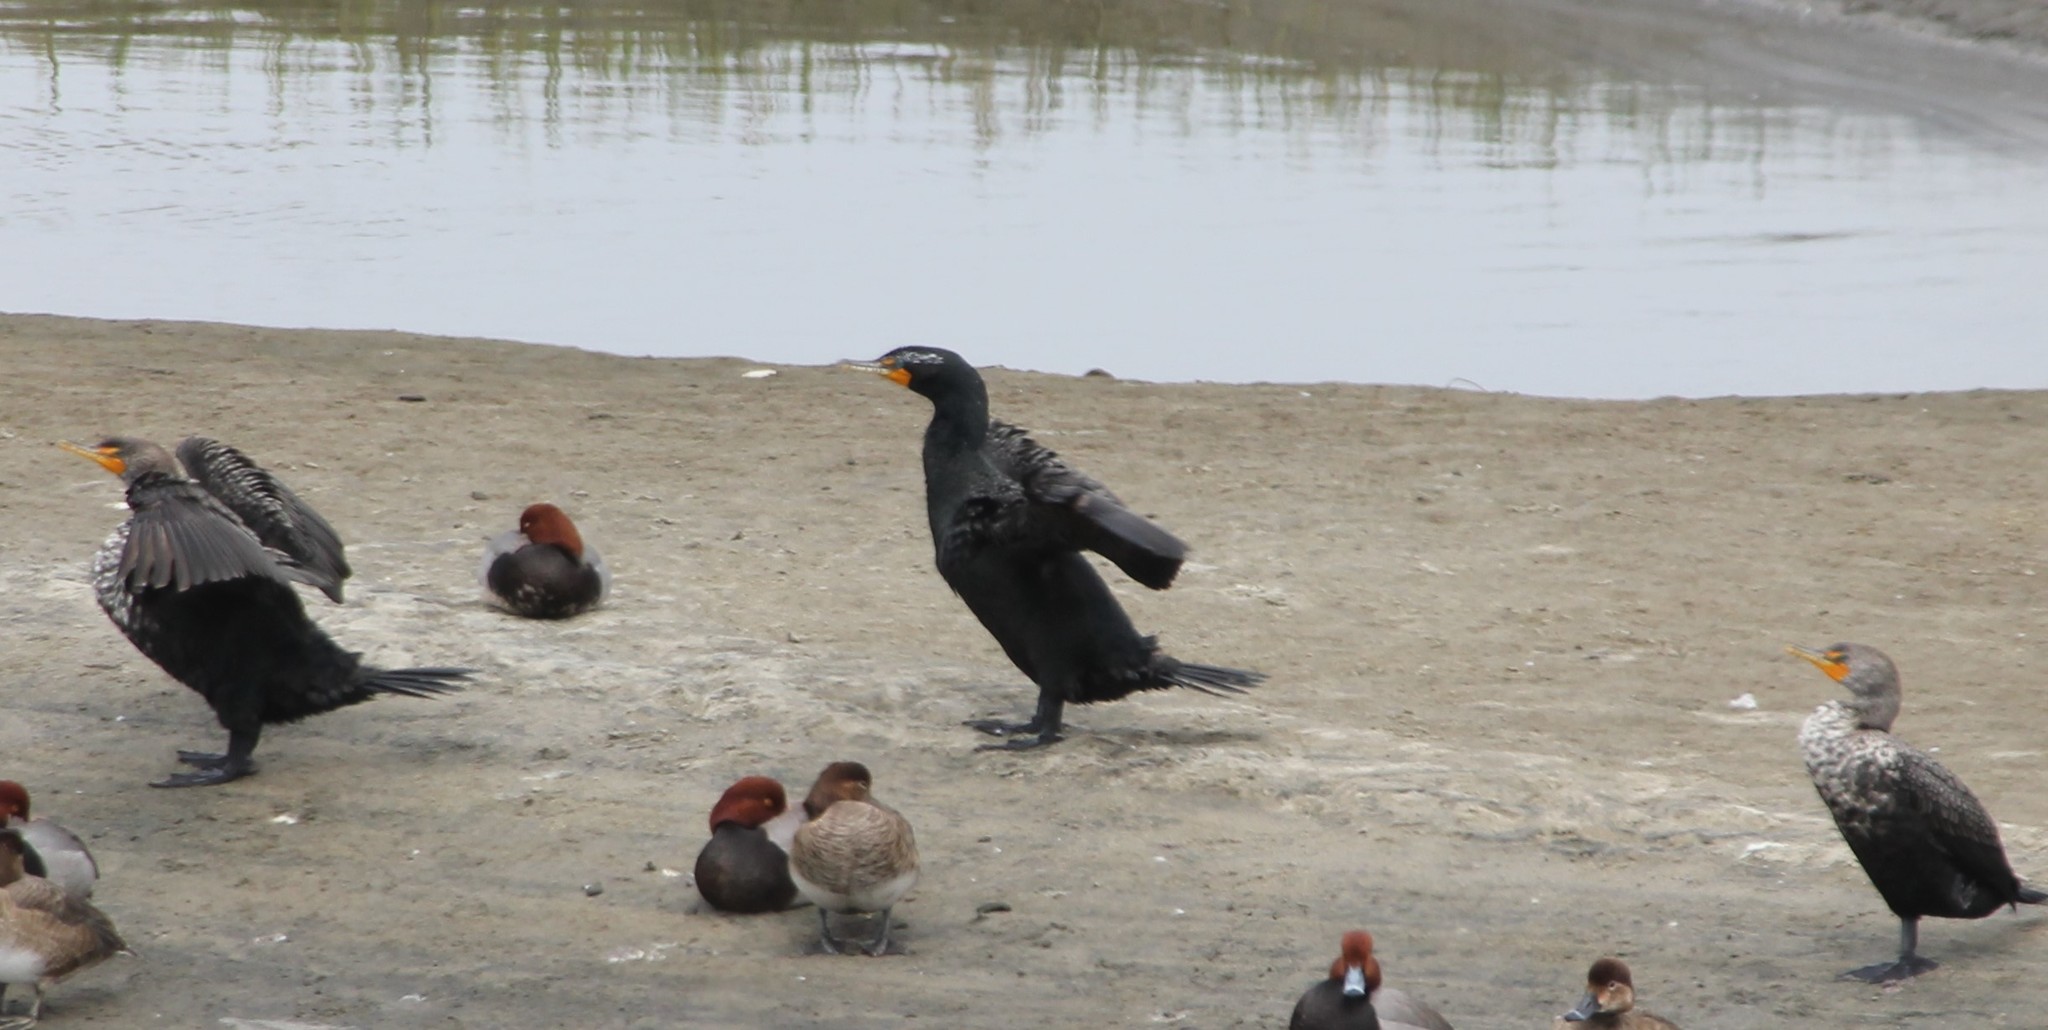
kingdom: Animalia
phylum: Chordata
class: Aves
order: Suliformes
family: Phalacrocoracidae
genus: Phalacrocorax
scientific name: Phalacrocorax auritus
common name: Double-crested cormorant
